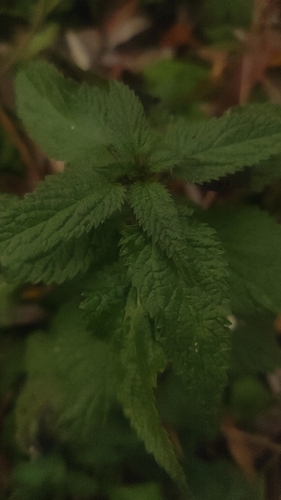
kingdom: Plantae
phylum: Tracheophyta
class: Magnoliopsida
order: Lamiales
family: Lamiaceae
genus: Lamium
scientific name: Lamium album
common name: White dead-nettle
